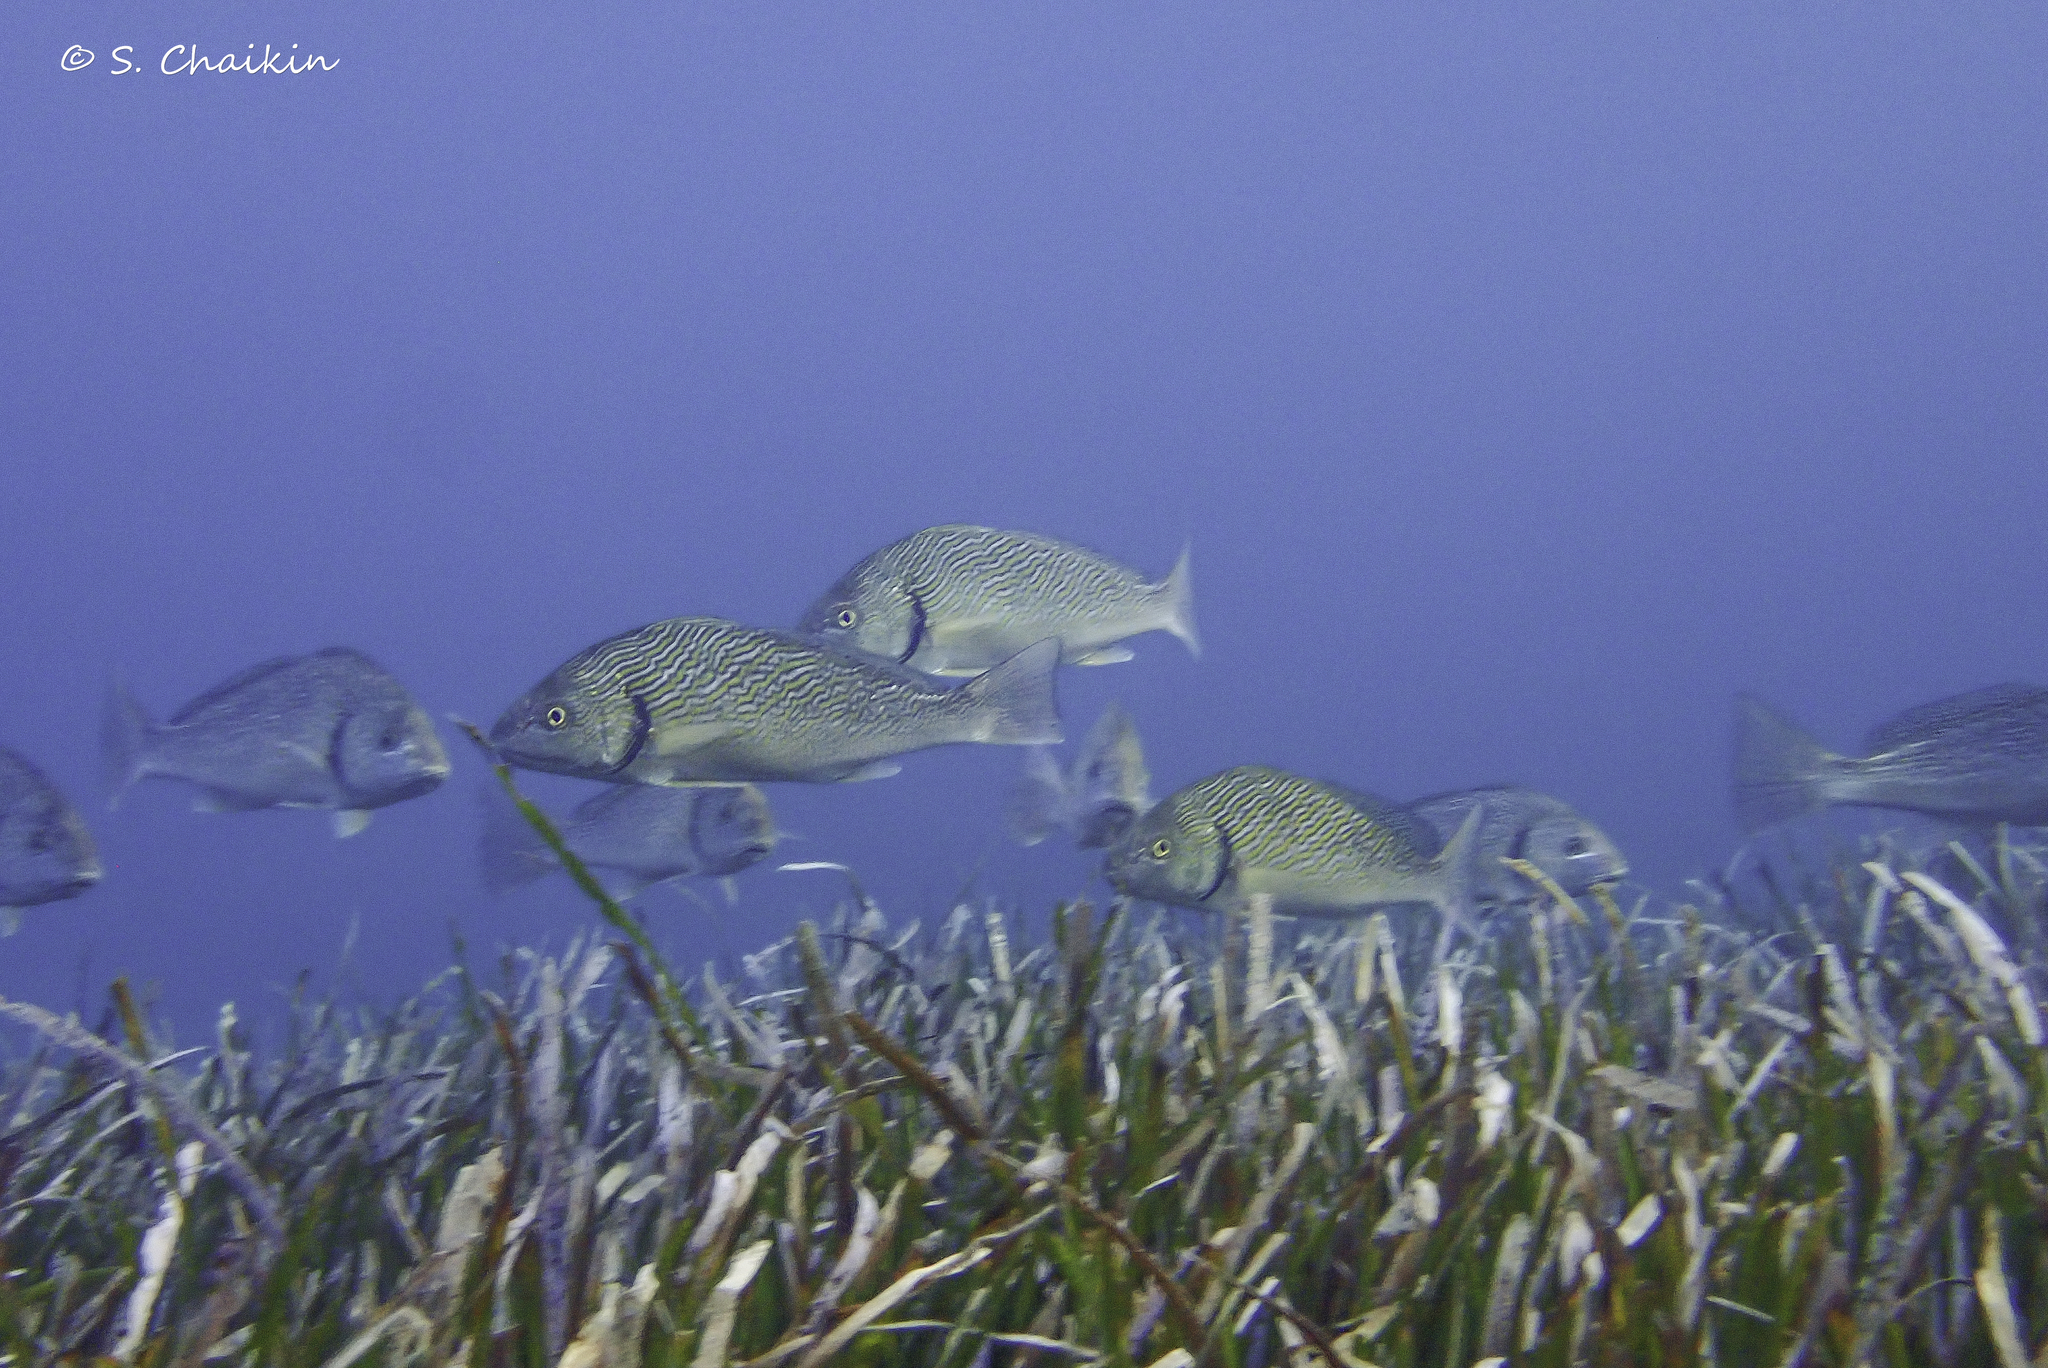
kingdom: Animalia
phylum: Chordata
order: Perciformes
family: Sciaenidae
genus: Umbrina
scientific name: Umbrina cirrosa
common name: Shi drum
